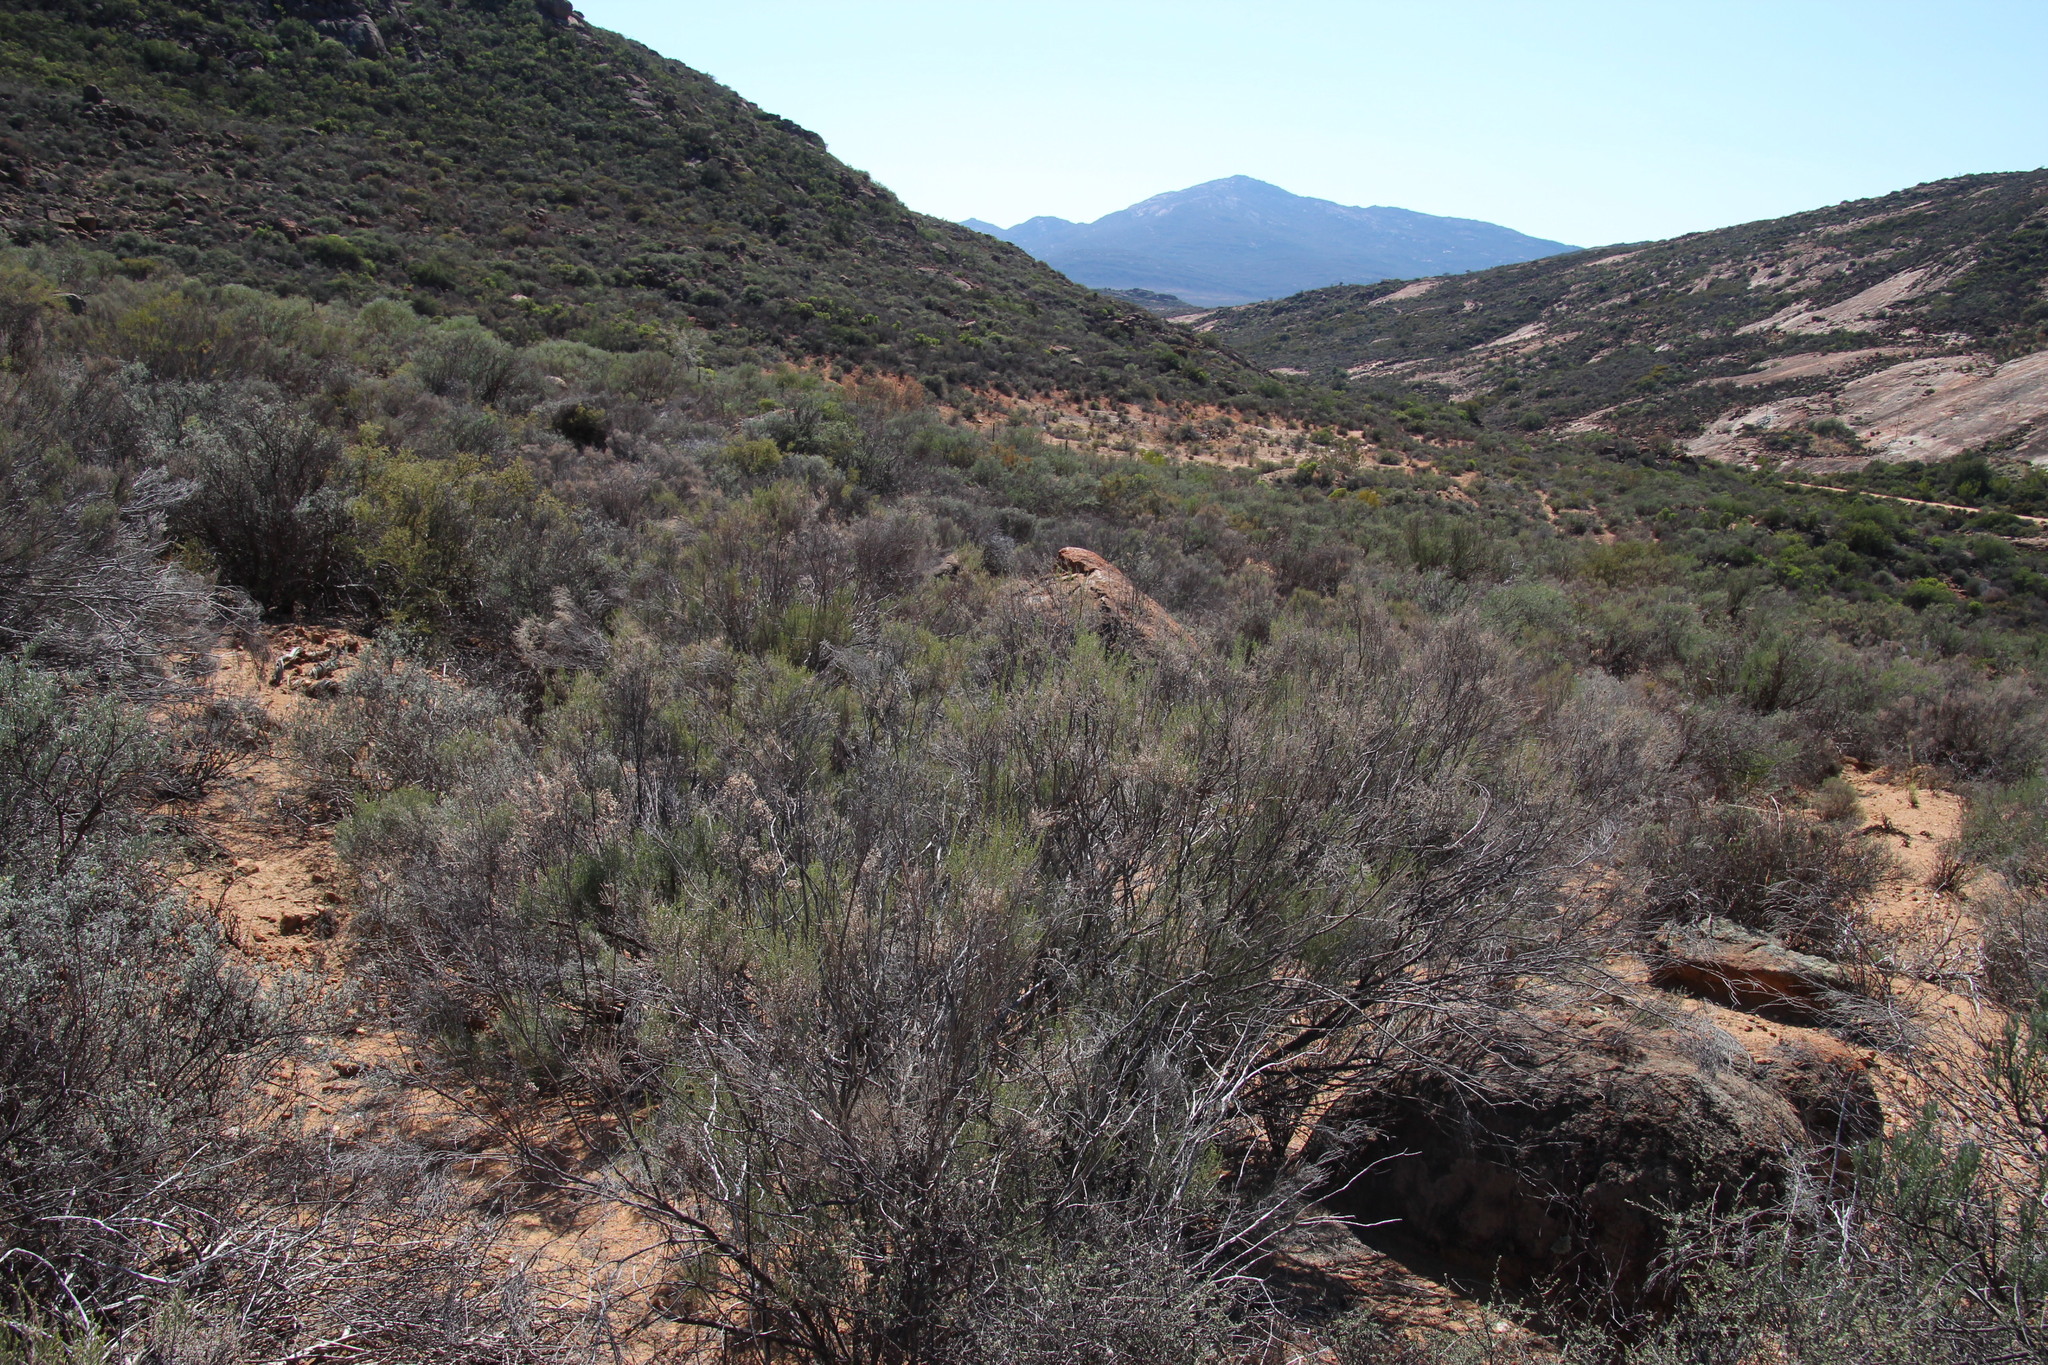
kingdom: Plantae
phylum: Tracheophyta
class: Magnoliopsida
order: Asterales
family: Asteraceae
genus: Dicerothamnus
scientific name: Dicerothamnus rhinocerotis
